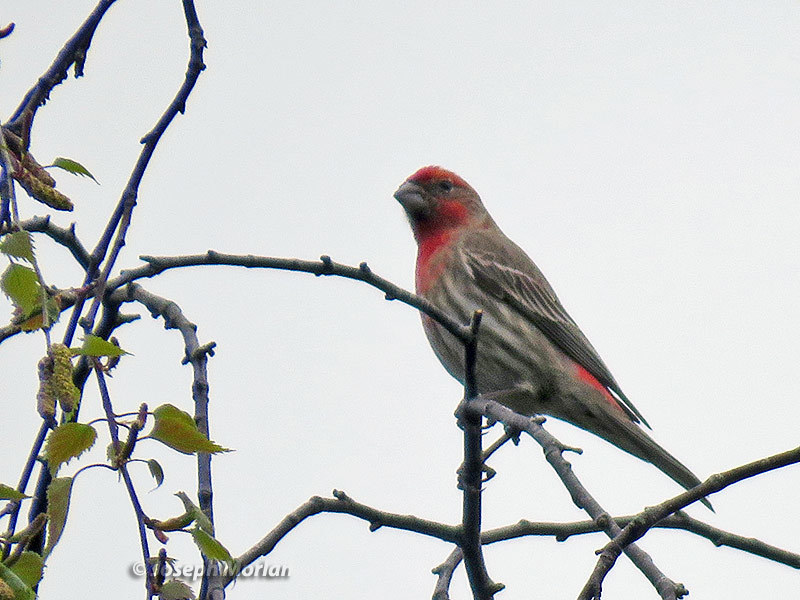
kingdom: Animalia
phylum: Chordata
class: Aves
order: Passeriformes
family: Fringillidae
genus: Haemorhous
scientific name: Haemorhous mexicanus
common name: House finch
